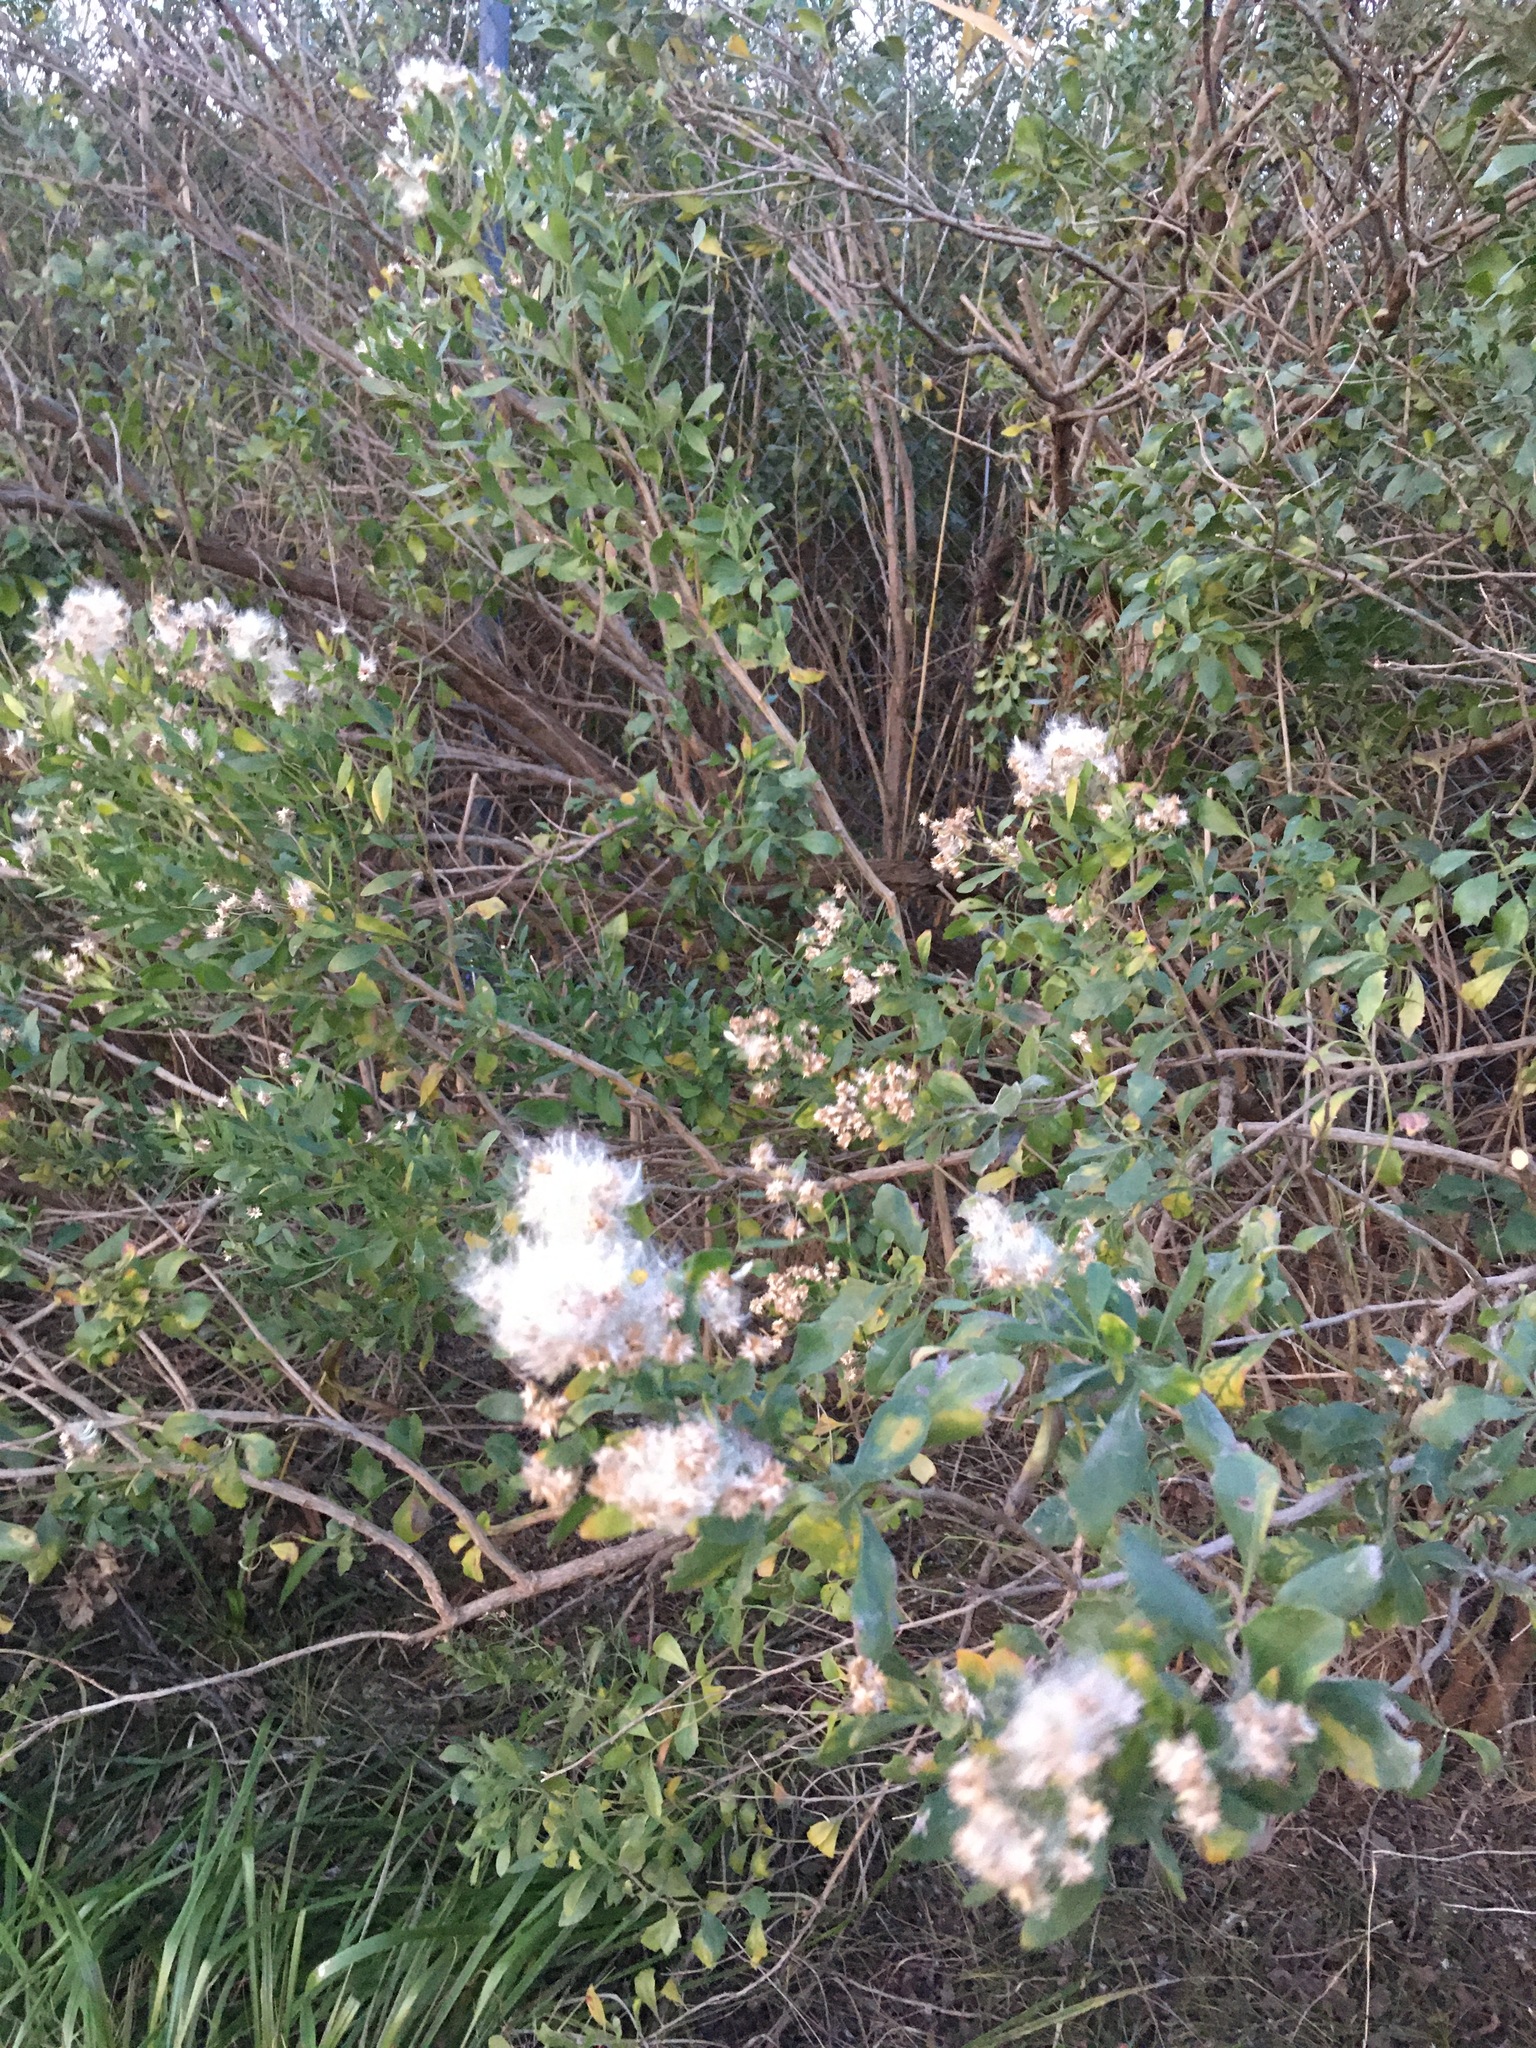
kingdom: Plantae
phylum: Tracheophyta
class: Magnoliopsida
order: Asterales
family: Asteraceae
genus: Baccharis
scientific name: Baccharis halimifolia
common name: Eastern baccharis
